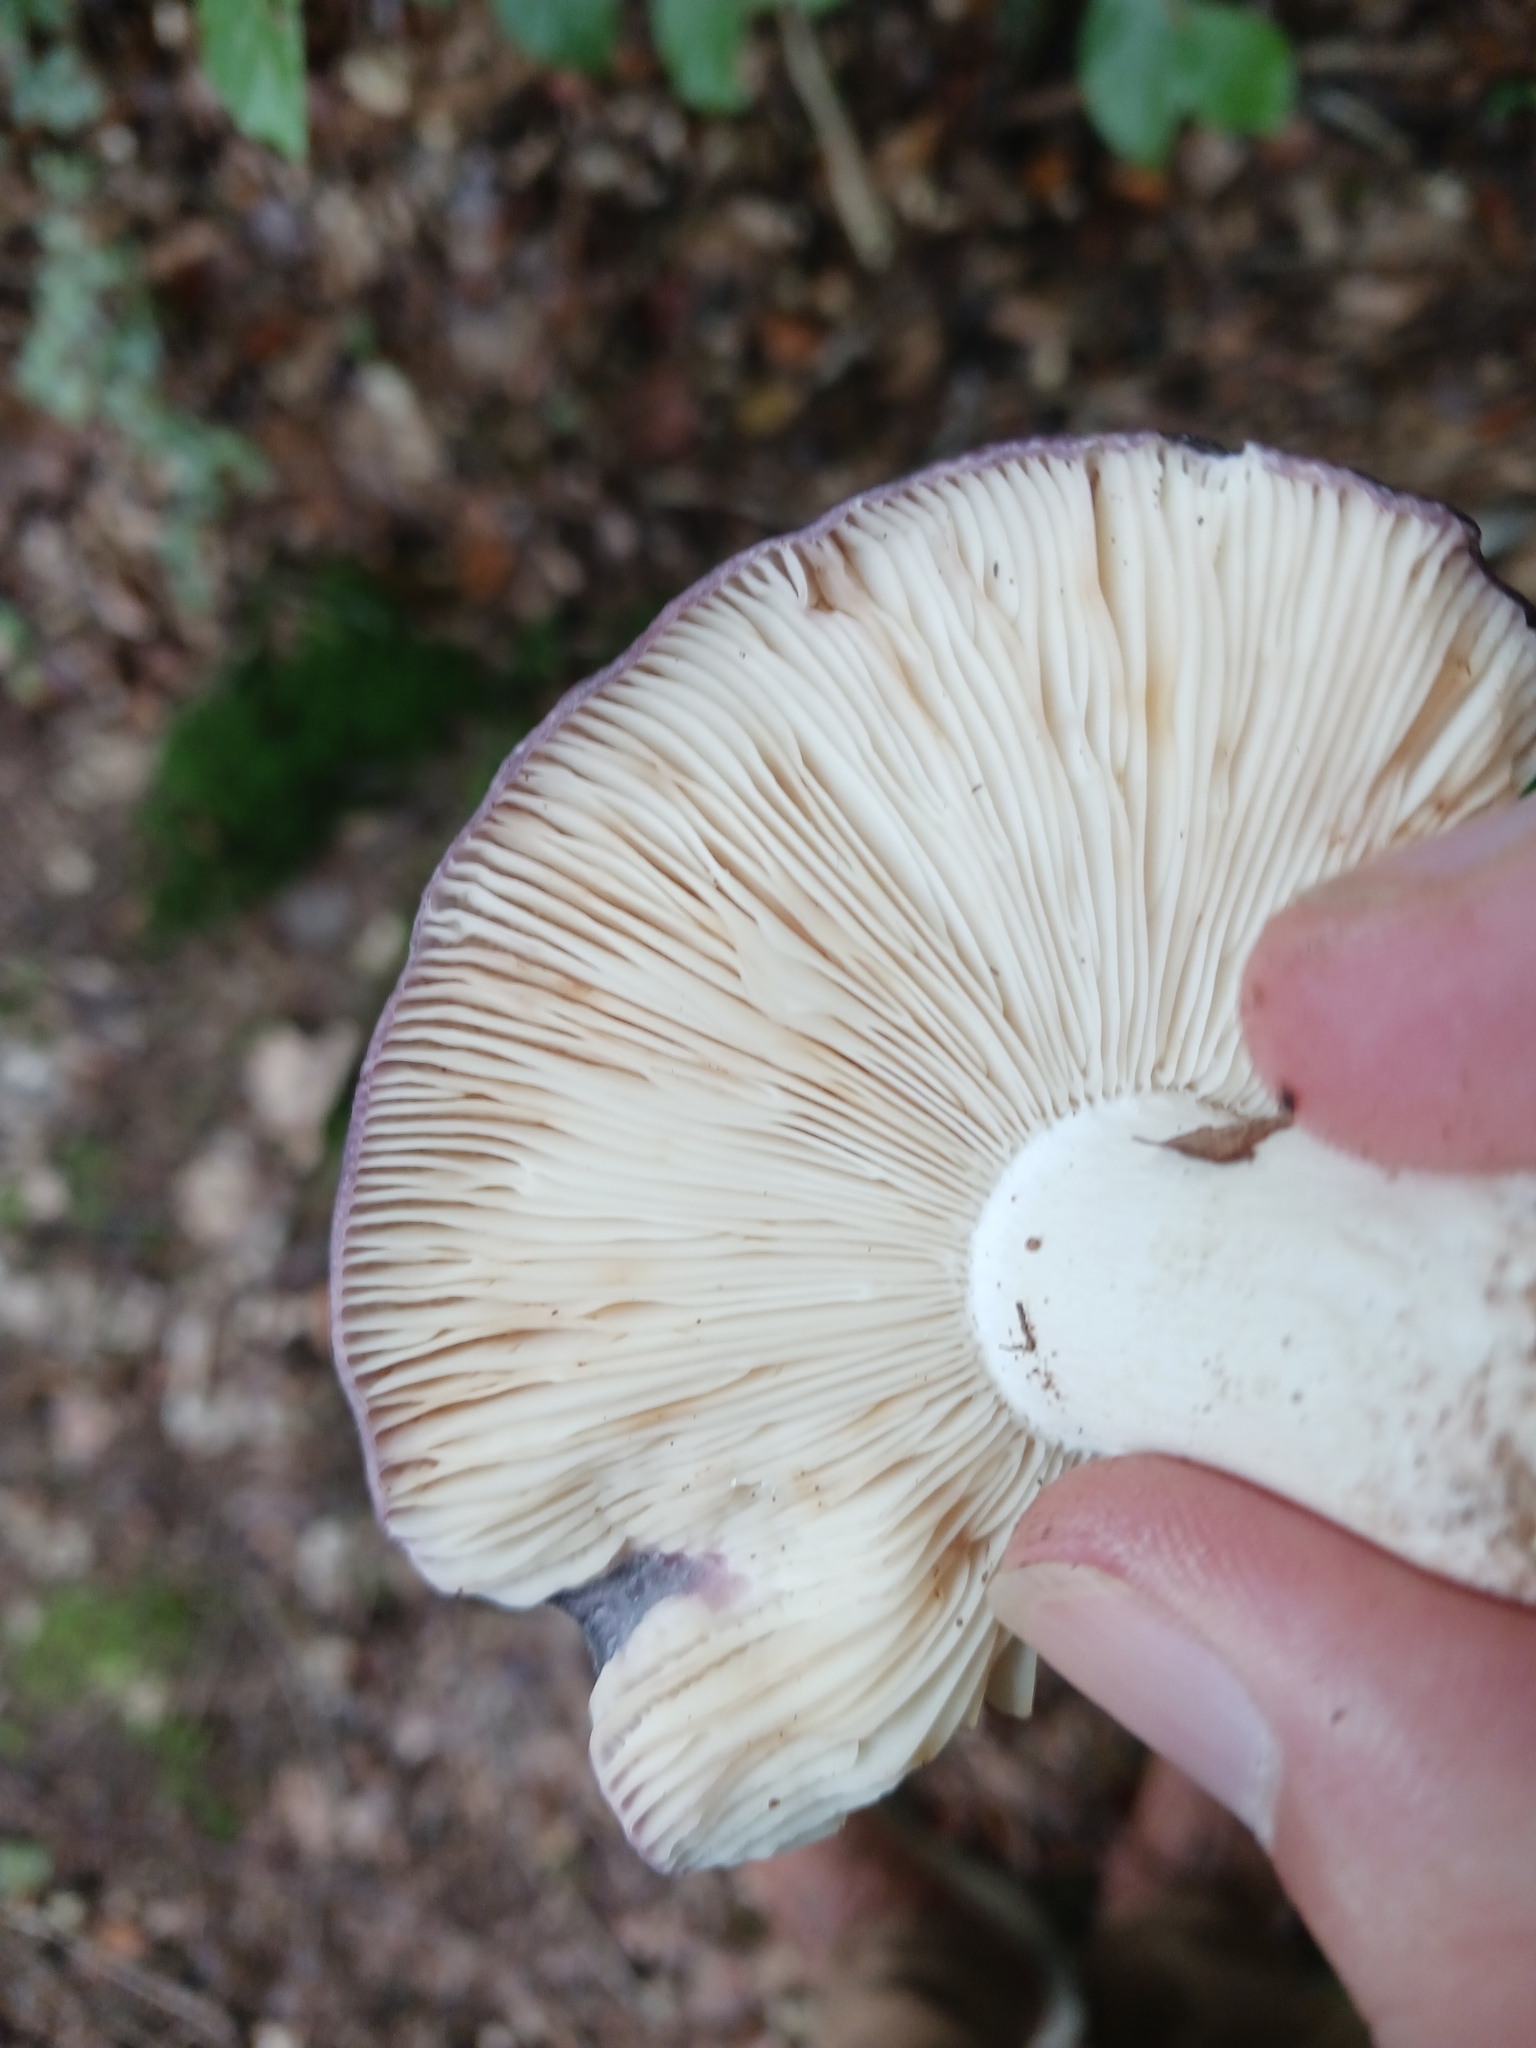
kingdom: Fungi
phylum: Basidiomycota
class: Agaricomycetes
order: Russulales
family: Russulaceae
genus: Russula
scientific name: Russula cyanoxantha
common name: Charcoal burner
